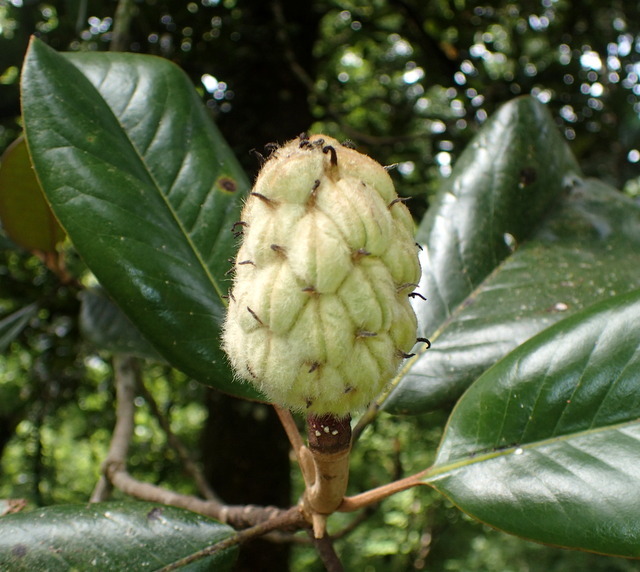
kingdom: Plantae
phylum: Tracheophyta
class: Magnoliopsida
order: Magnoliales
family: Magnoliaceae
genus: Magnolia
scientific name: Magnolia grandiflora
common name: Southern magnolia
